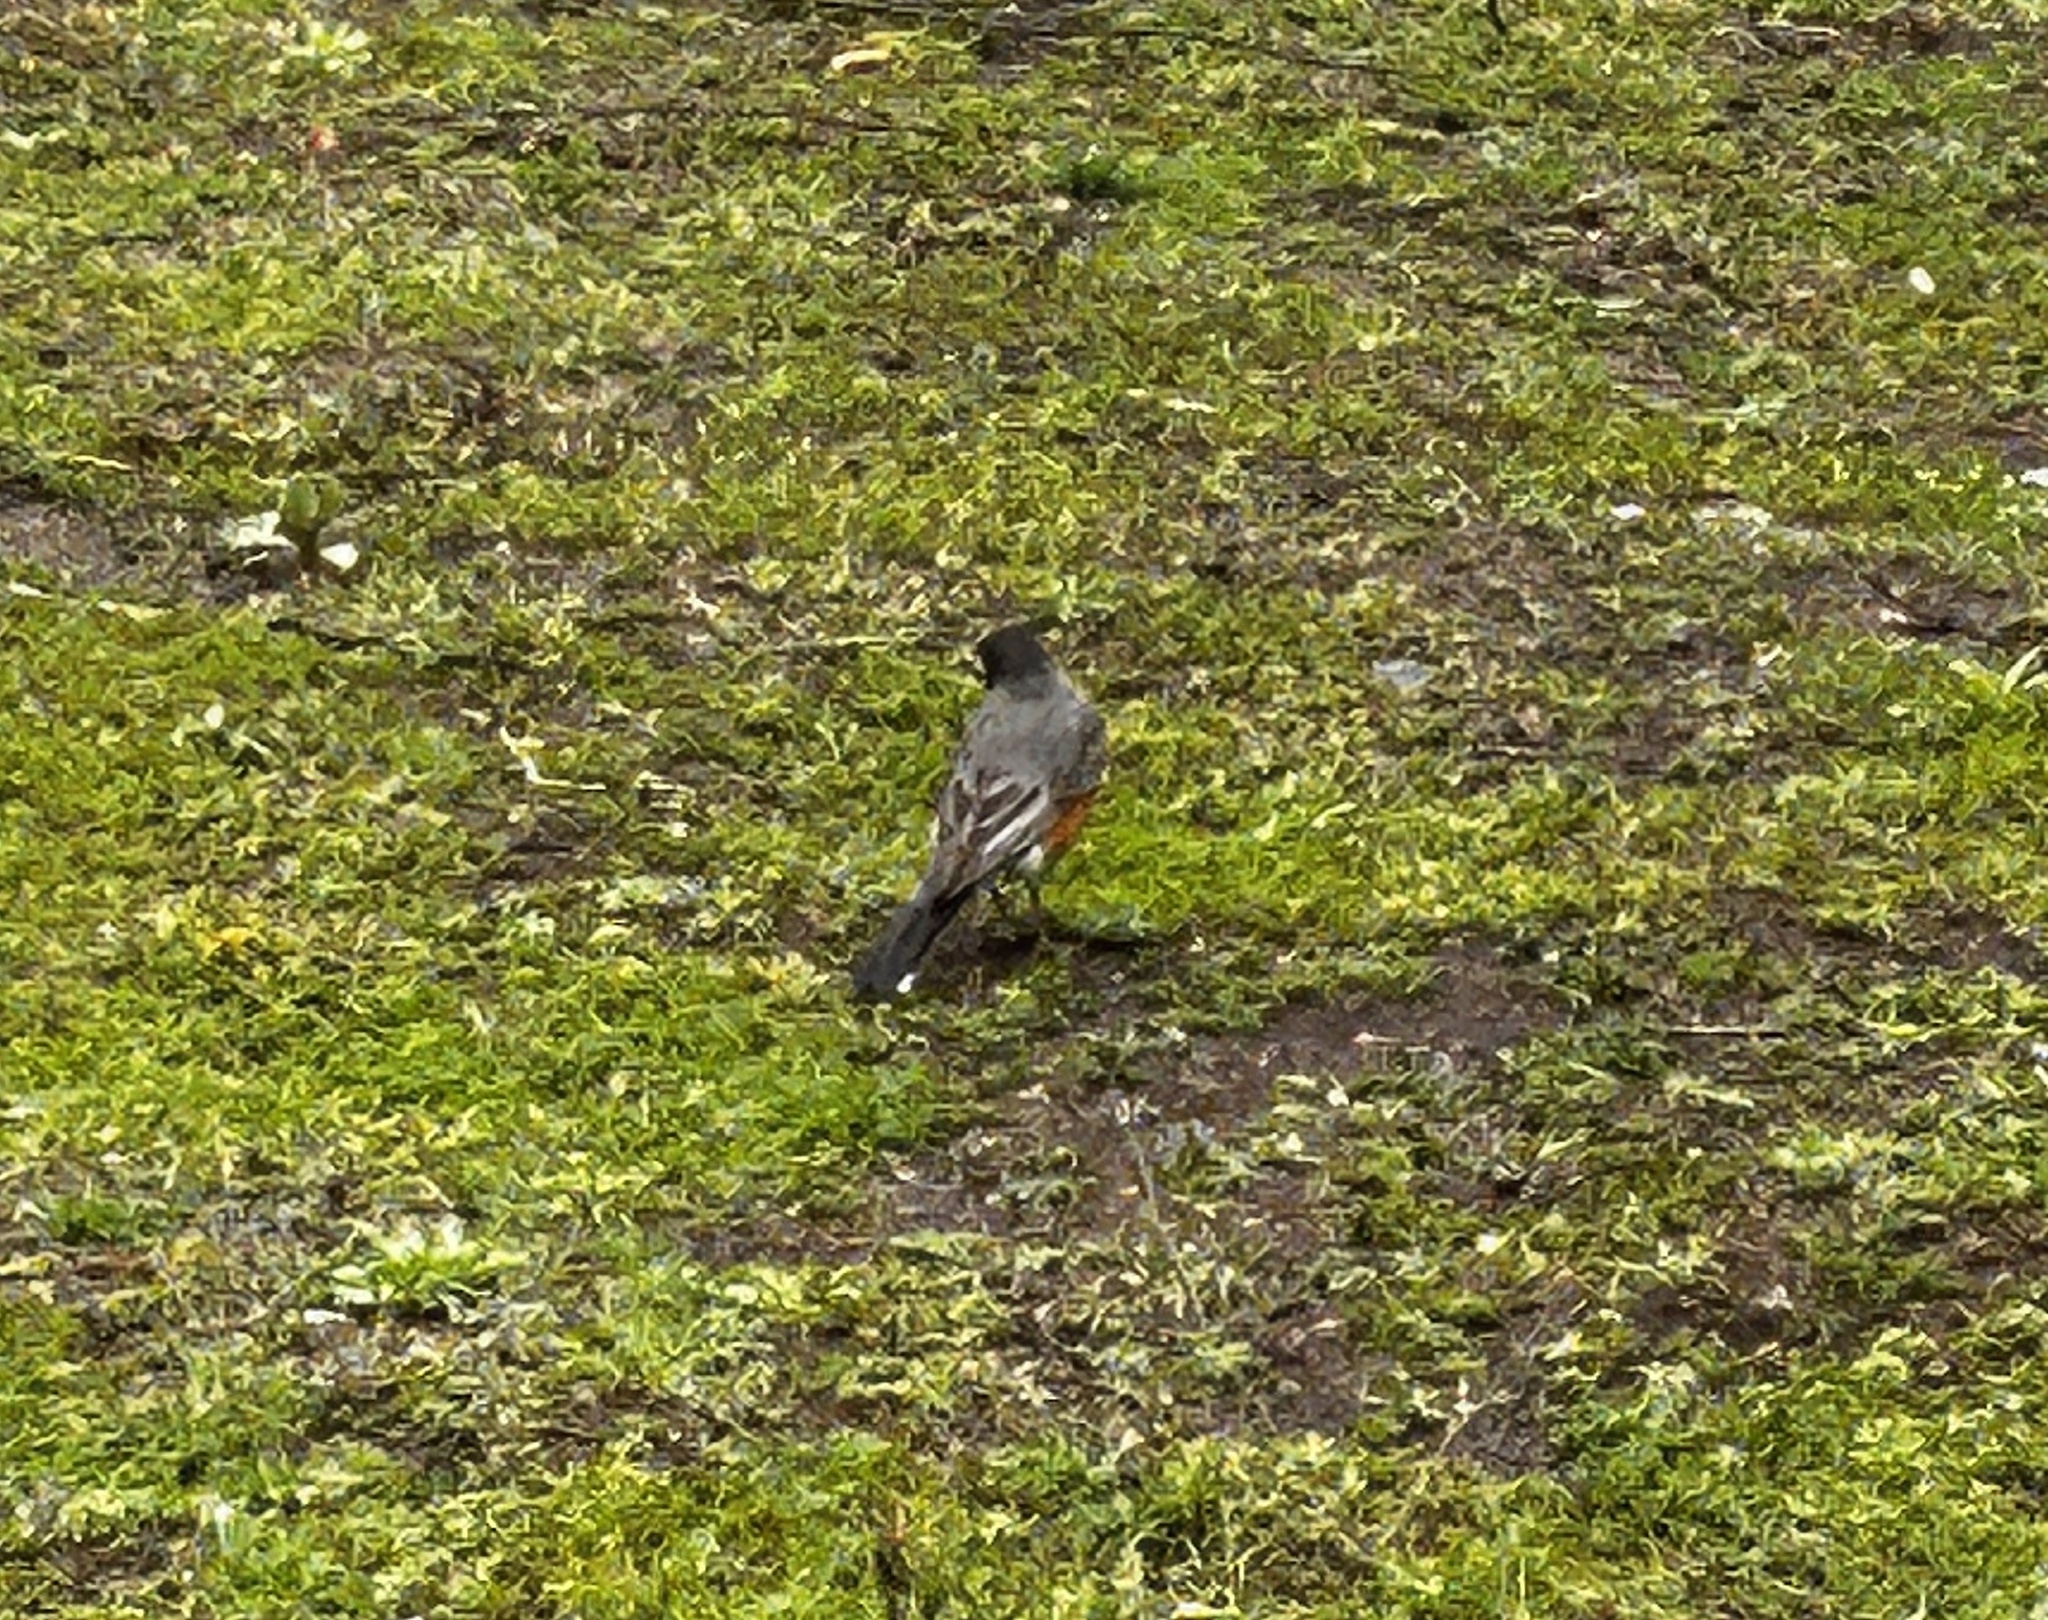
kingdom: Animalia
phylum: Chordata
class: Aves
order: Passeriformes
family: Turdidae
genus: Turdus
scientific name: Turdus migratorius
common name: American robin
